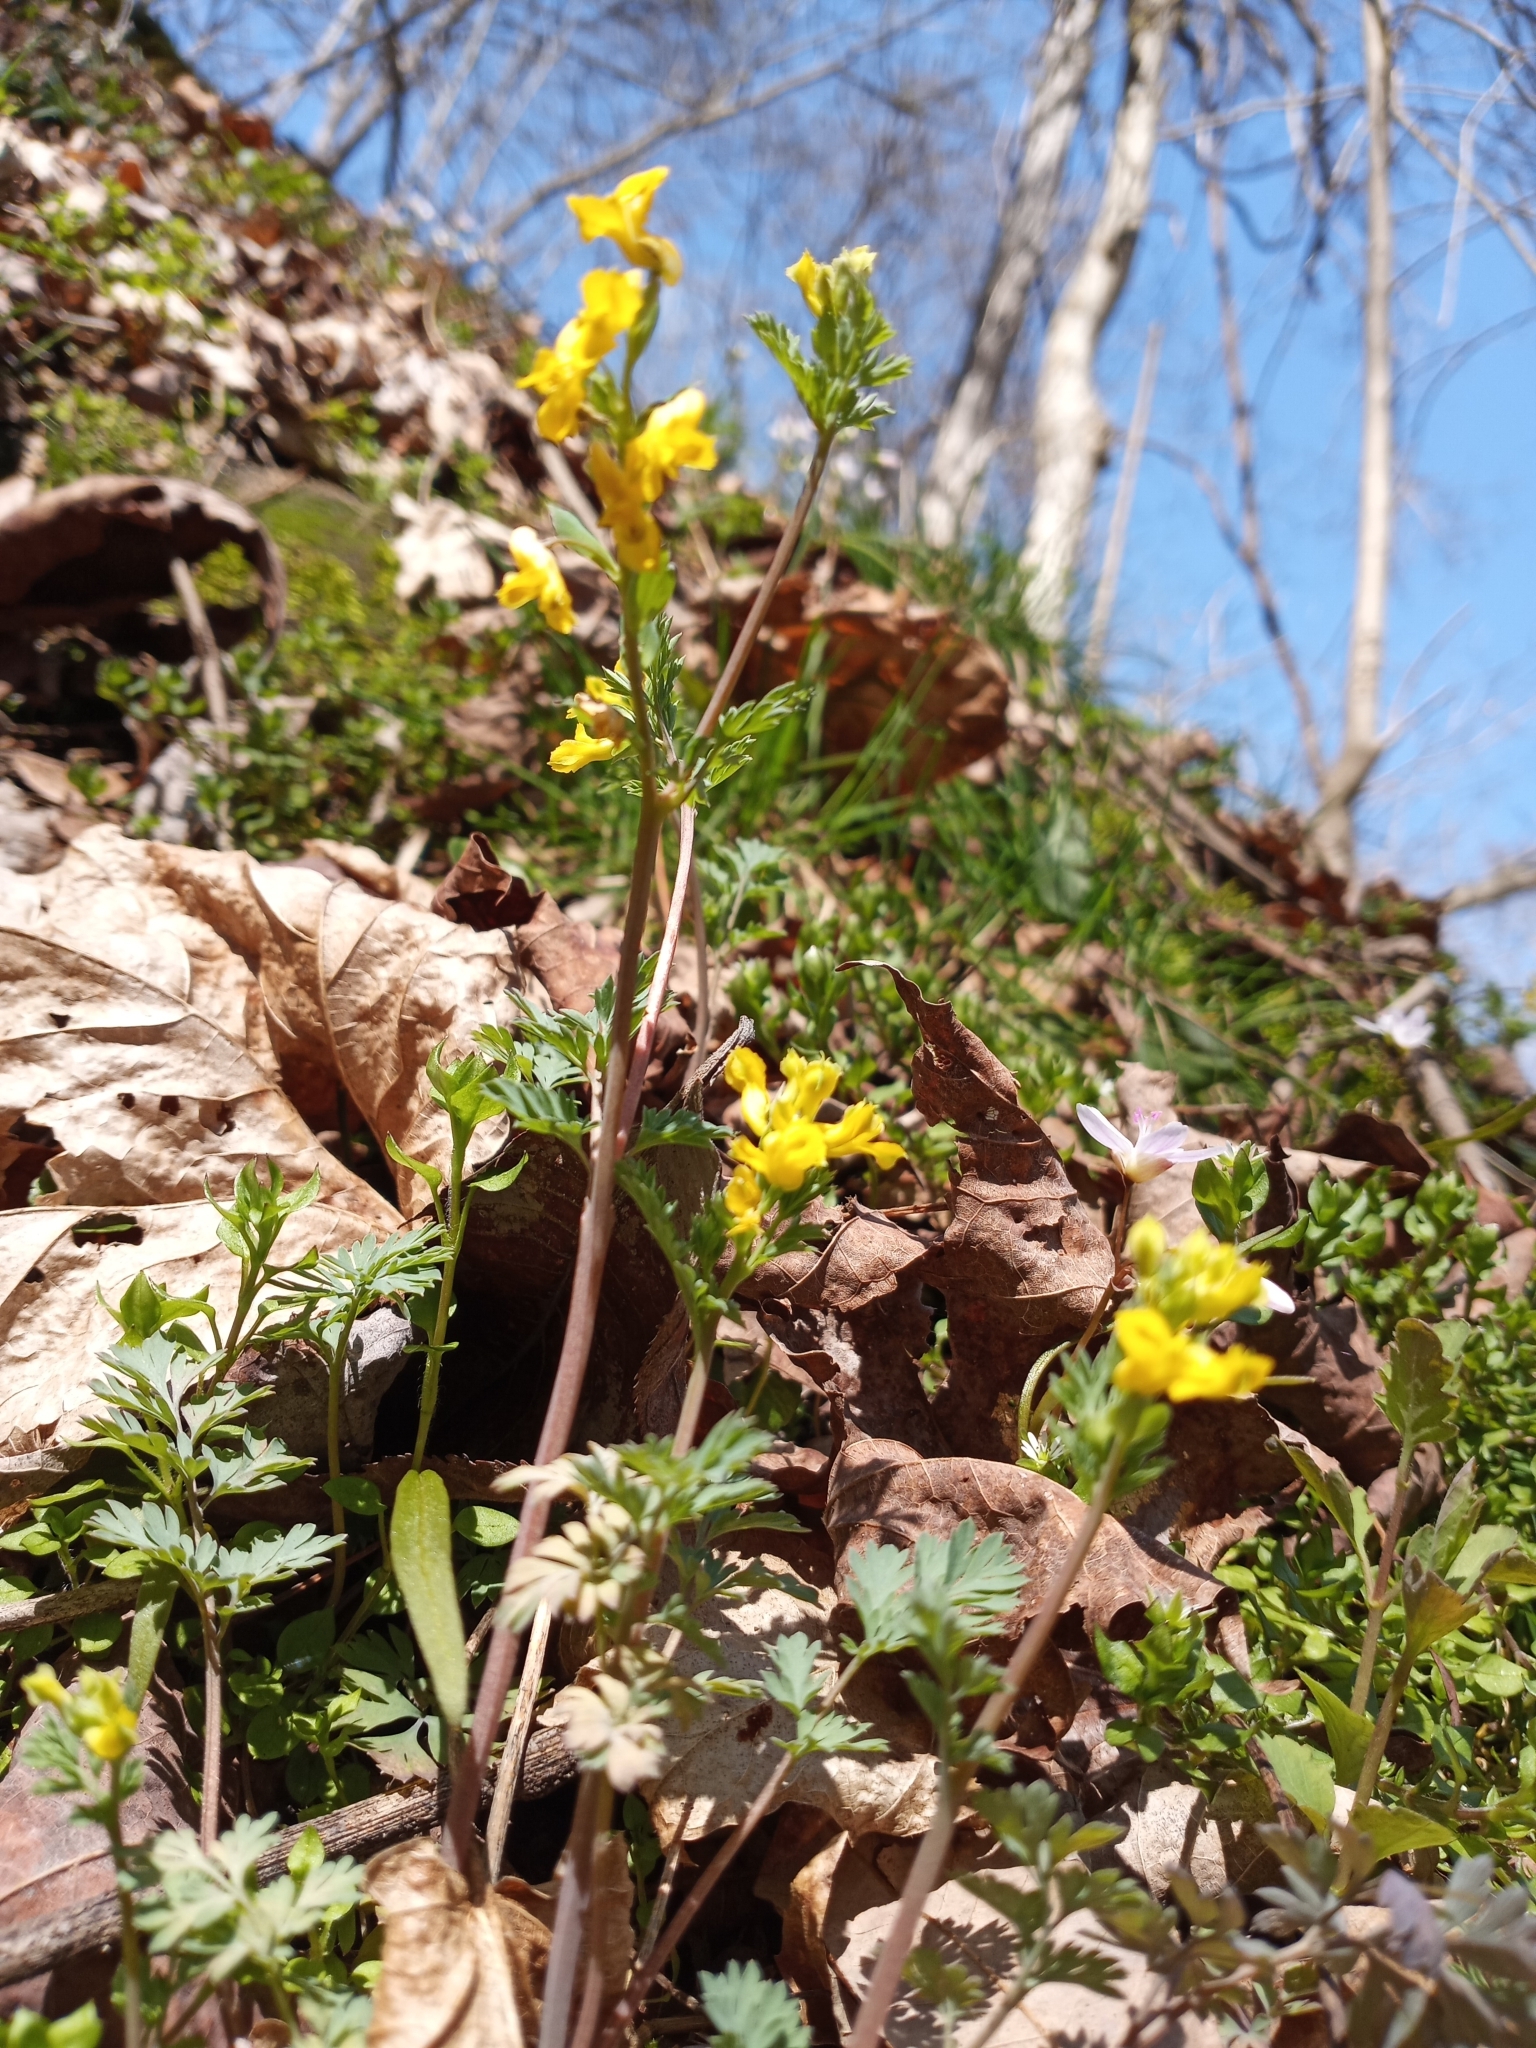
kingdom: Plantae
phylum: Tracheophyta
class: Magnoliopsida
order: Ranunculales
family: Papaveraceae
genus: Corydalis
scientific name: Corydalis flavula
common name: Yellow corydalis
